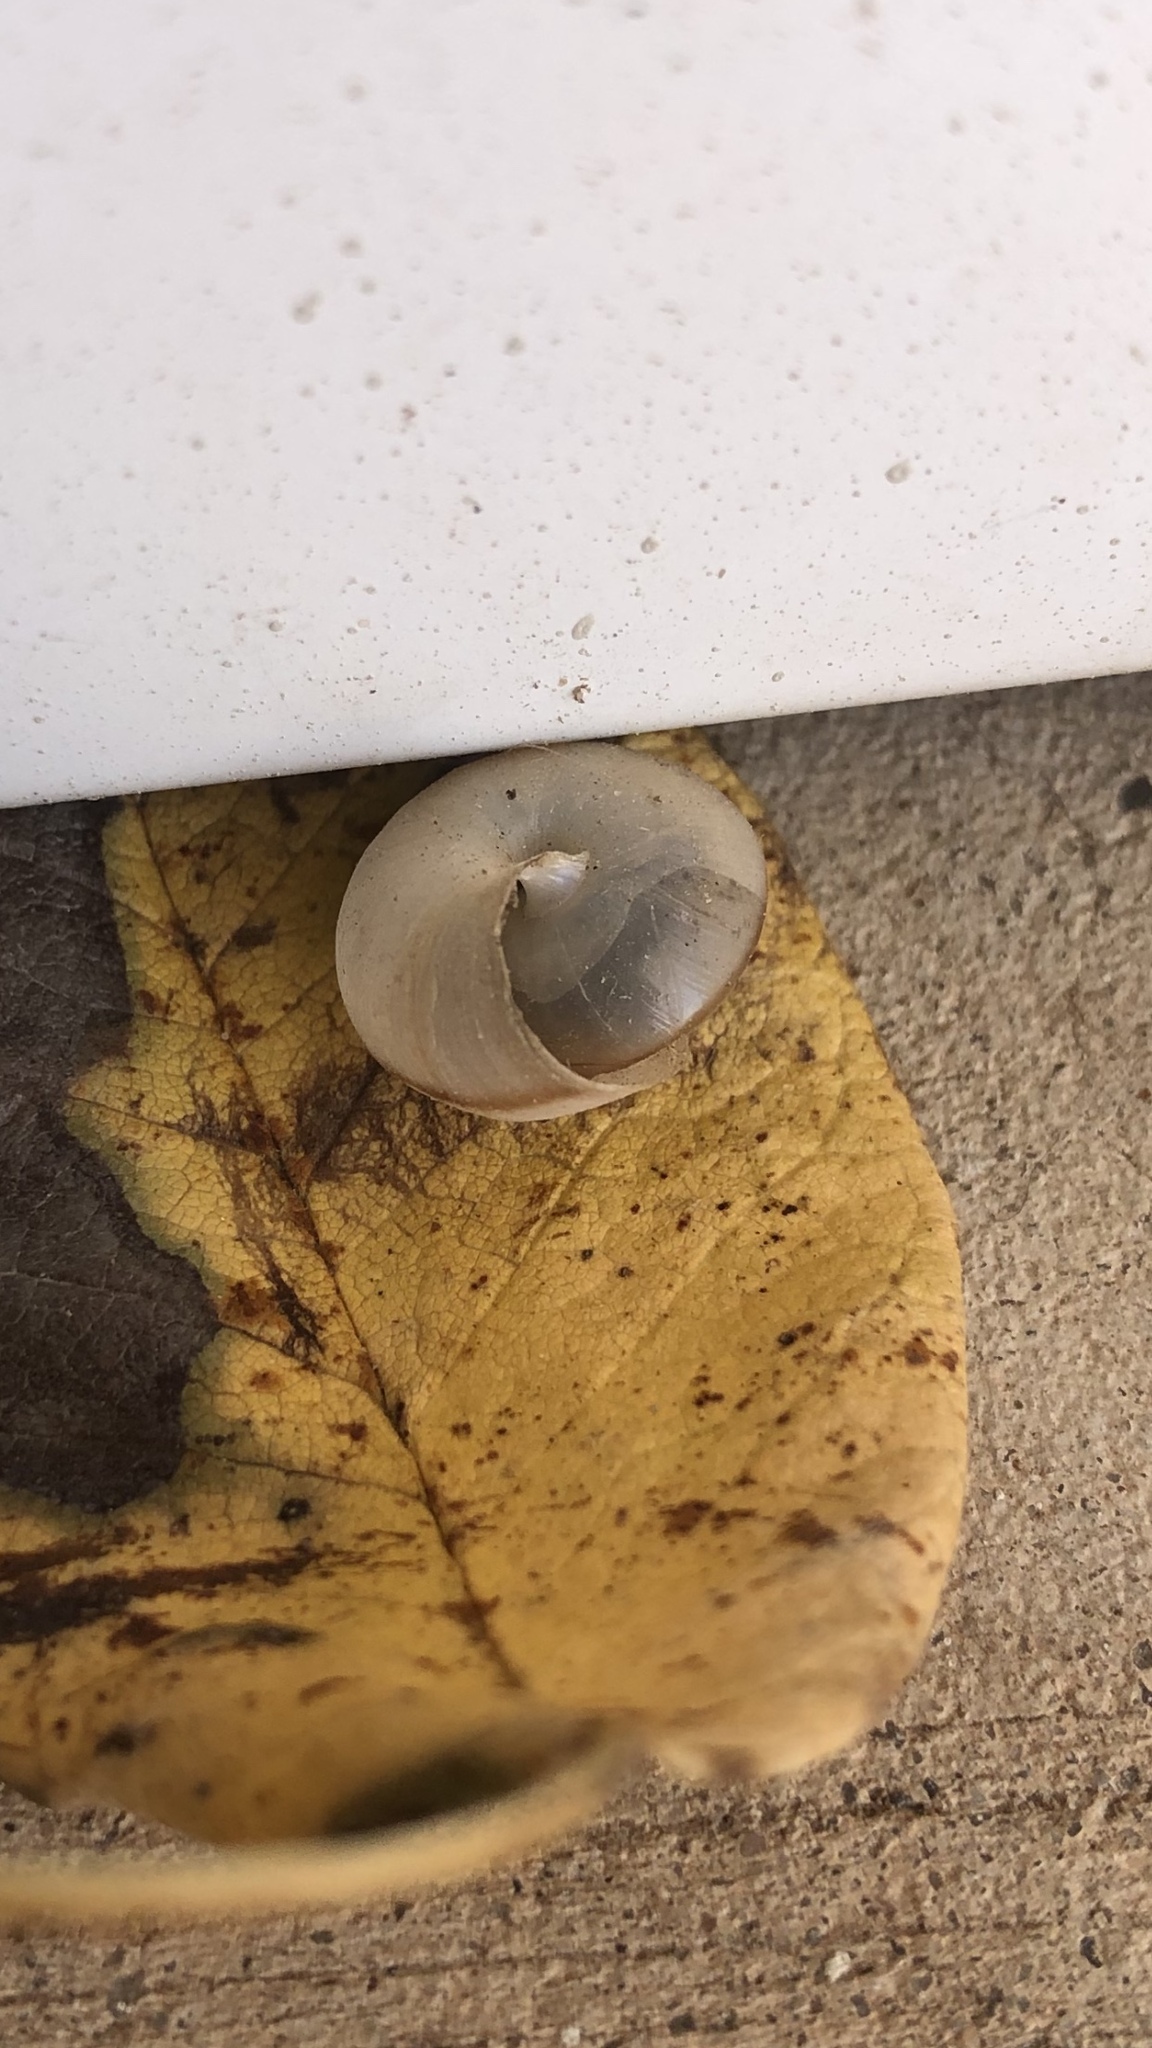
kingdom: Animalia
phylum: Mollusca
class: Gastropoda
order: Stylommatophora
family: Camaenidae
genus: Bradybaena
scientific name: Bradybaena similaris
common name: Asian trampsnail
